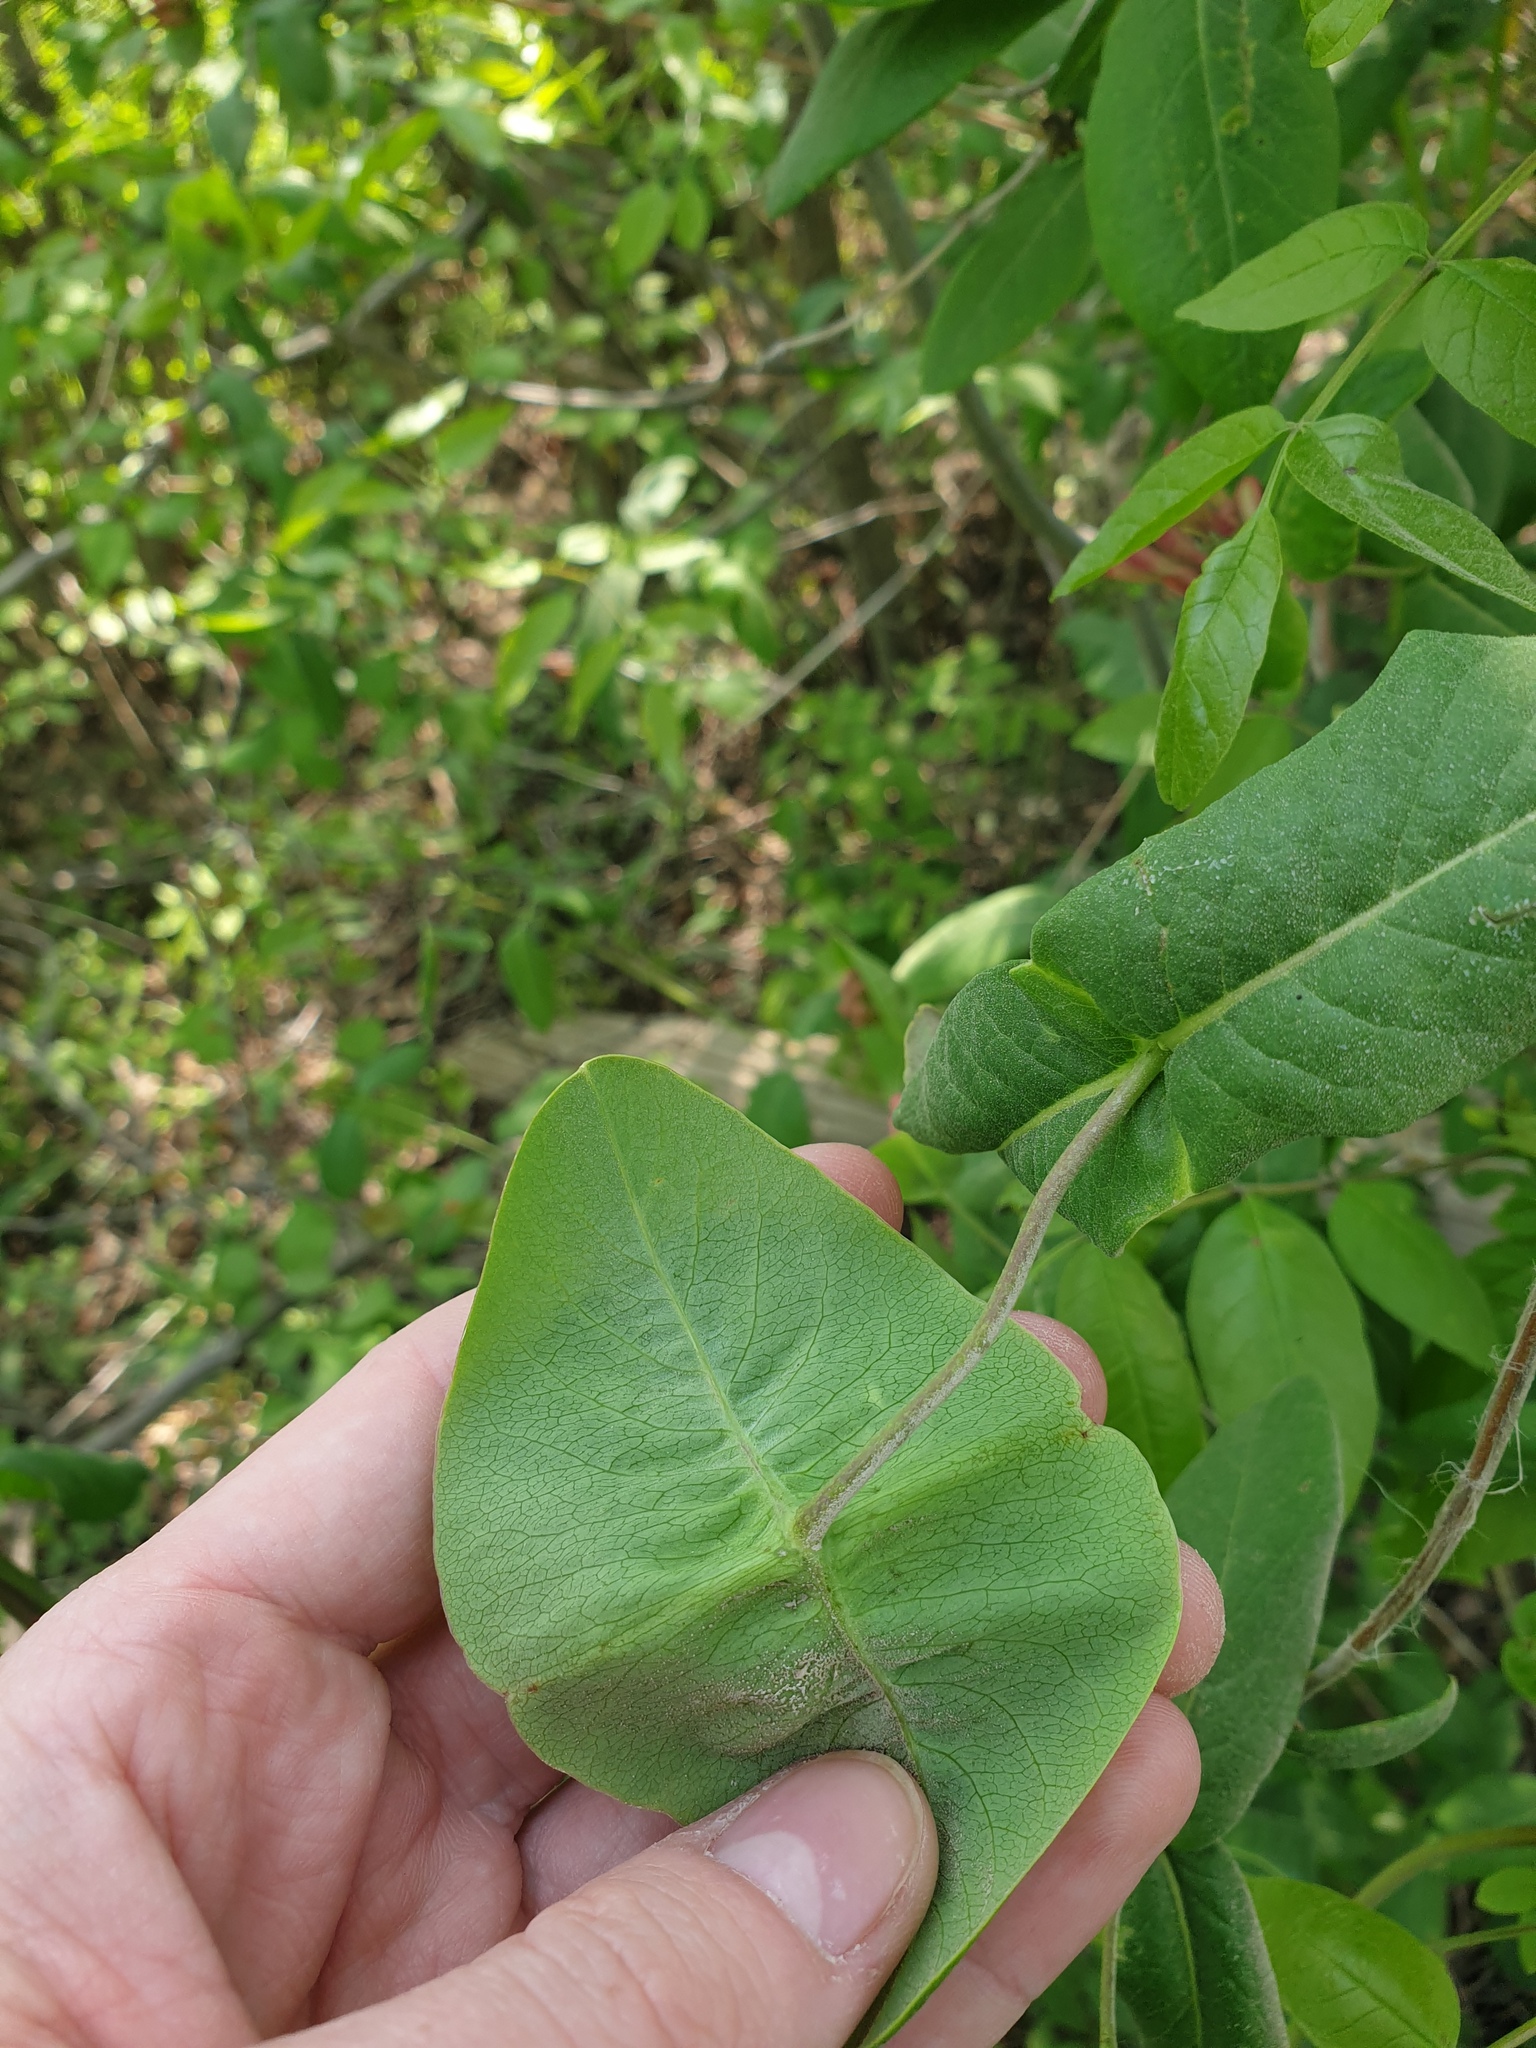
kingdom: Plantae
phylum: Tracheophyta
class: Magnoliopsida
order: Dipsacales
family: Caprifoliaceae
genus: Lonicera
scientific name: Lonicera dioica
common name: Limber honeysuckle
